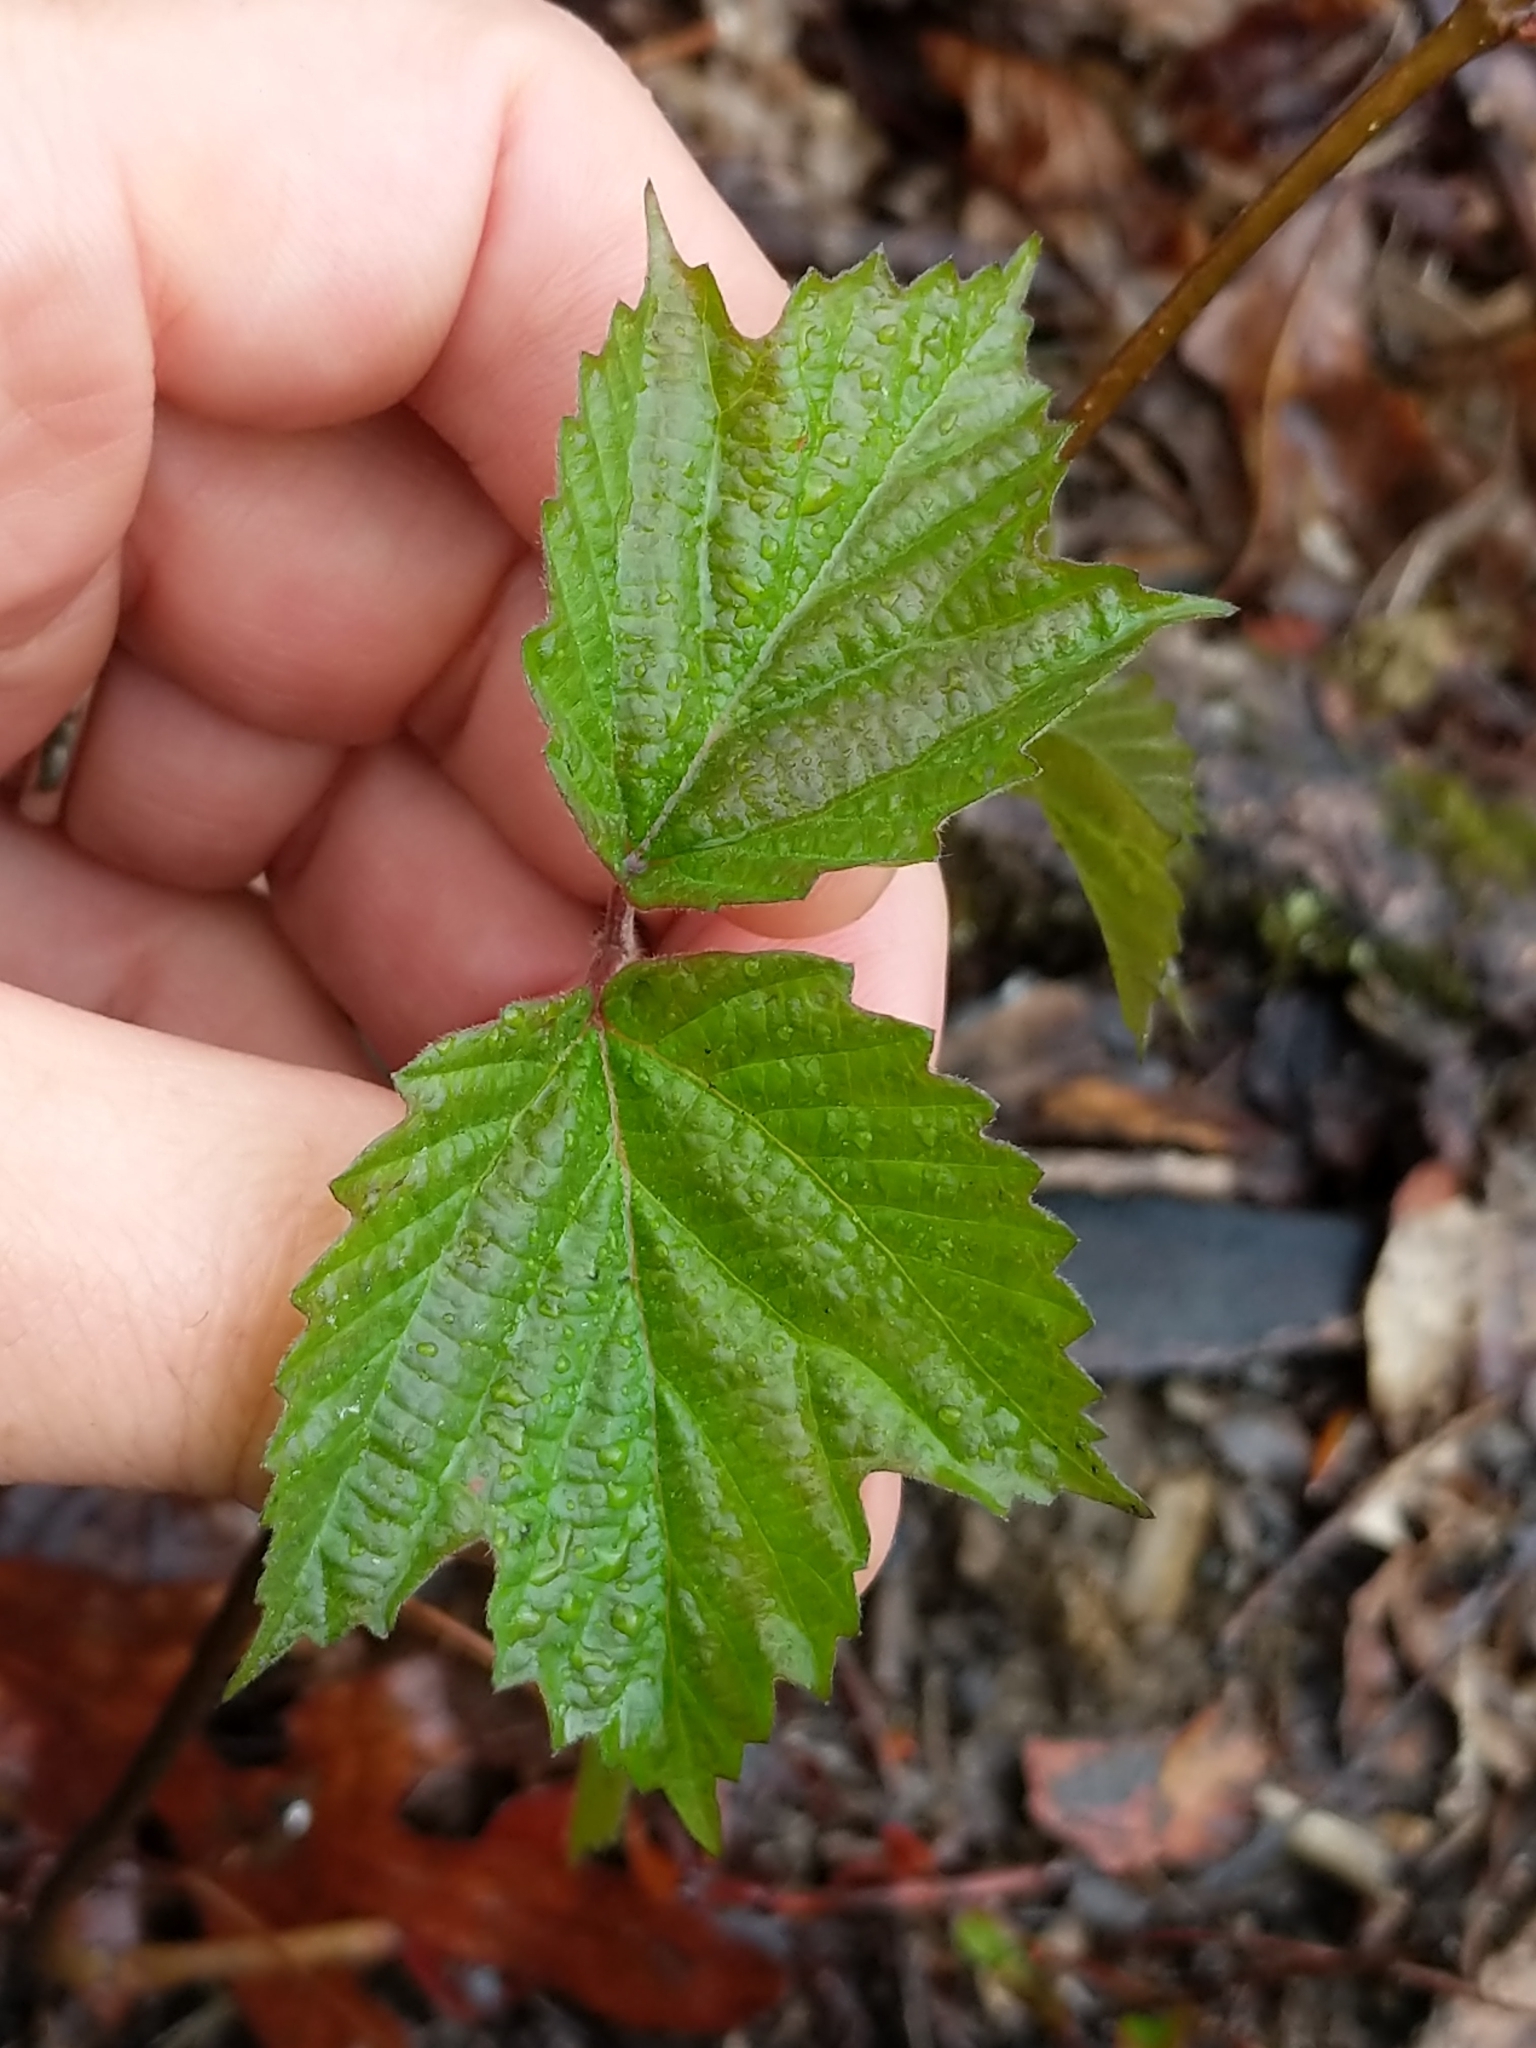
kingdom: Plantae
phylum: Tracheophyta
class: Magnoliopsida
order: Dipsacales
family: Viburnaceae
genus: Viburnum
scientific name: Viburnum acerifolium
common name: Dockmackie
